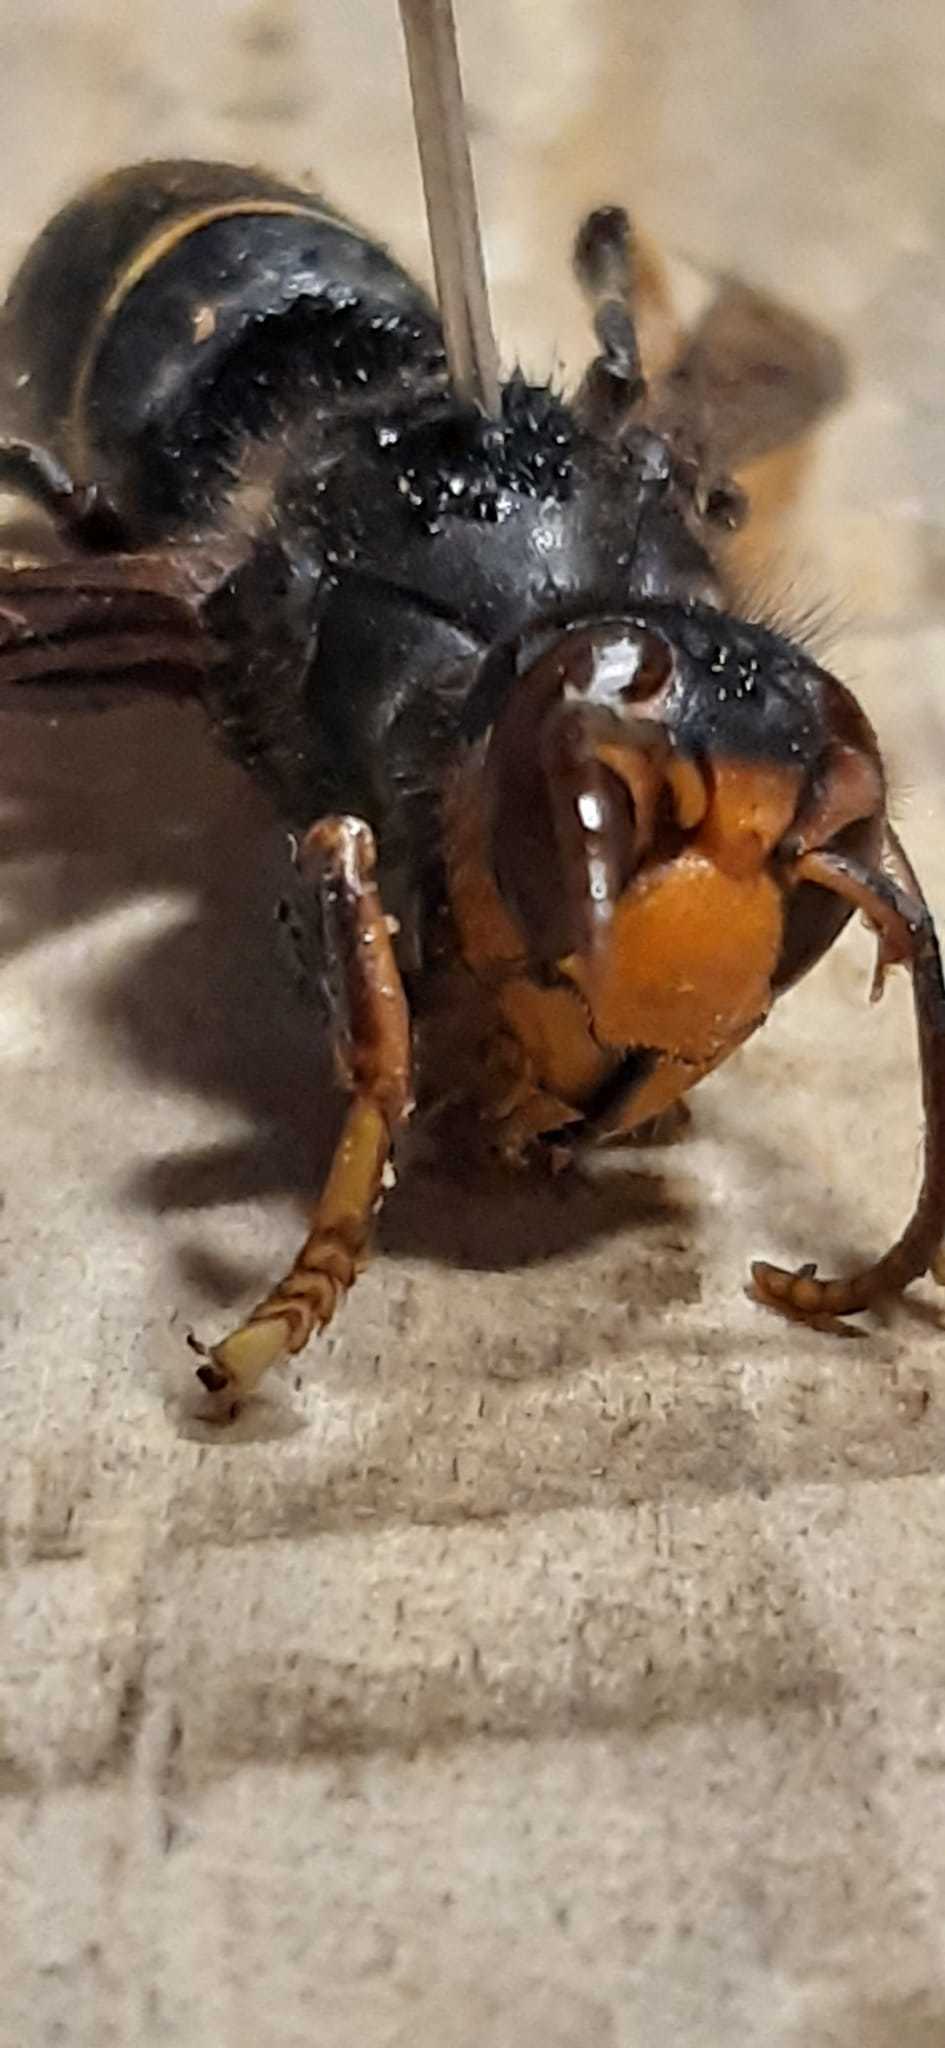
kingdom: Animalia
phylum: Arthropoda
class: Insecta
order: Hymenoptera
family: Vespidae
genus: Vespa
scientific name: Vespa velutina
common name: Asian hornet
